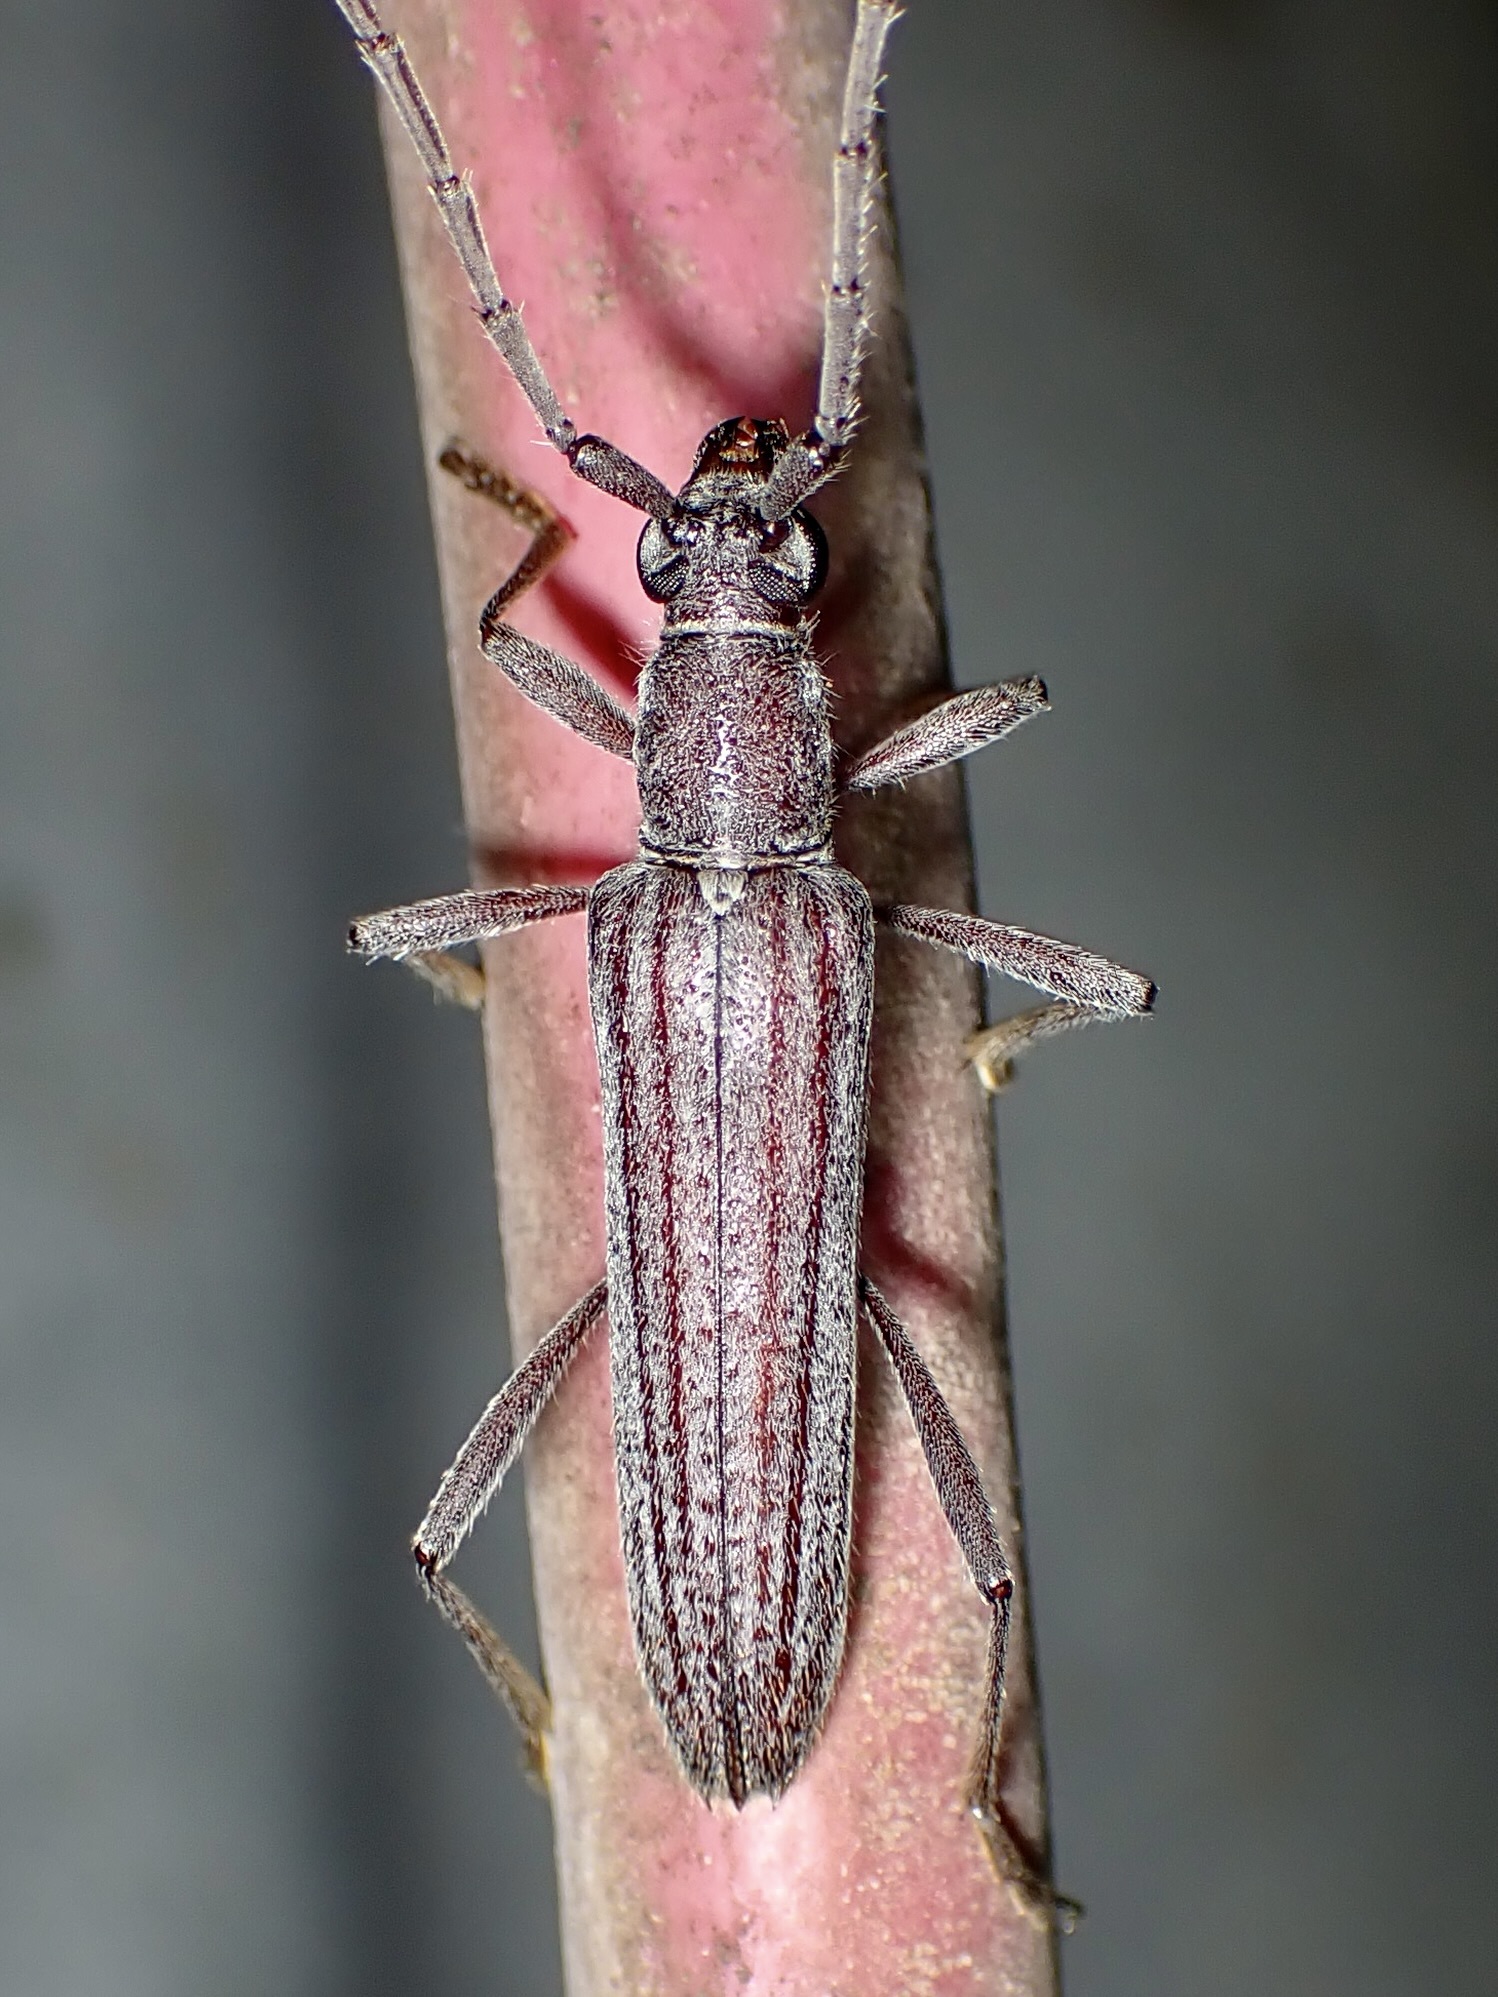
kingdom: Animalia
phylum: Arthropoda
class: Insecta
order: Coleoptera
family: Cerambycidae
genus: Aneflus
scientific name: Aneflus levettei
